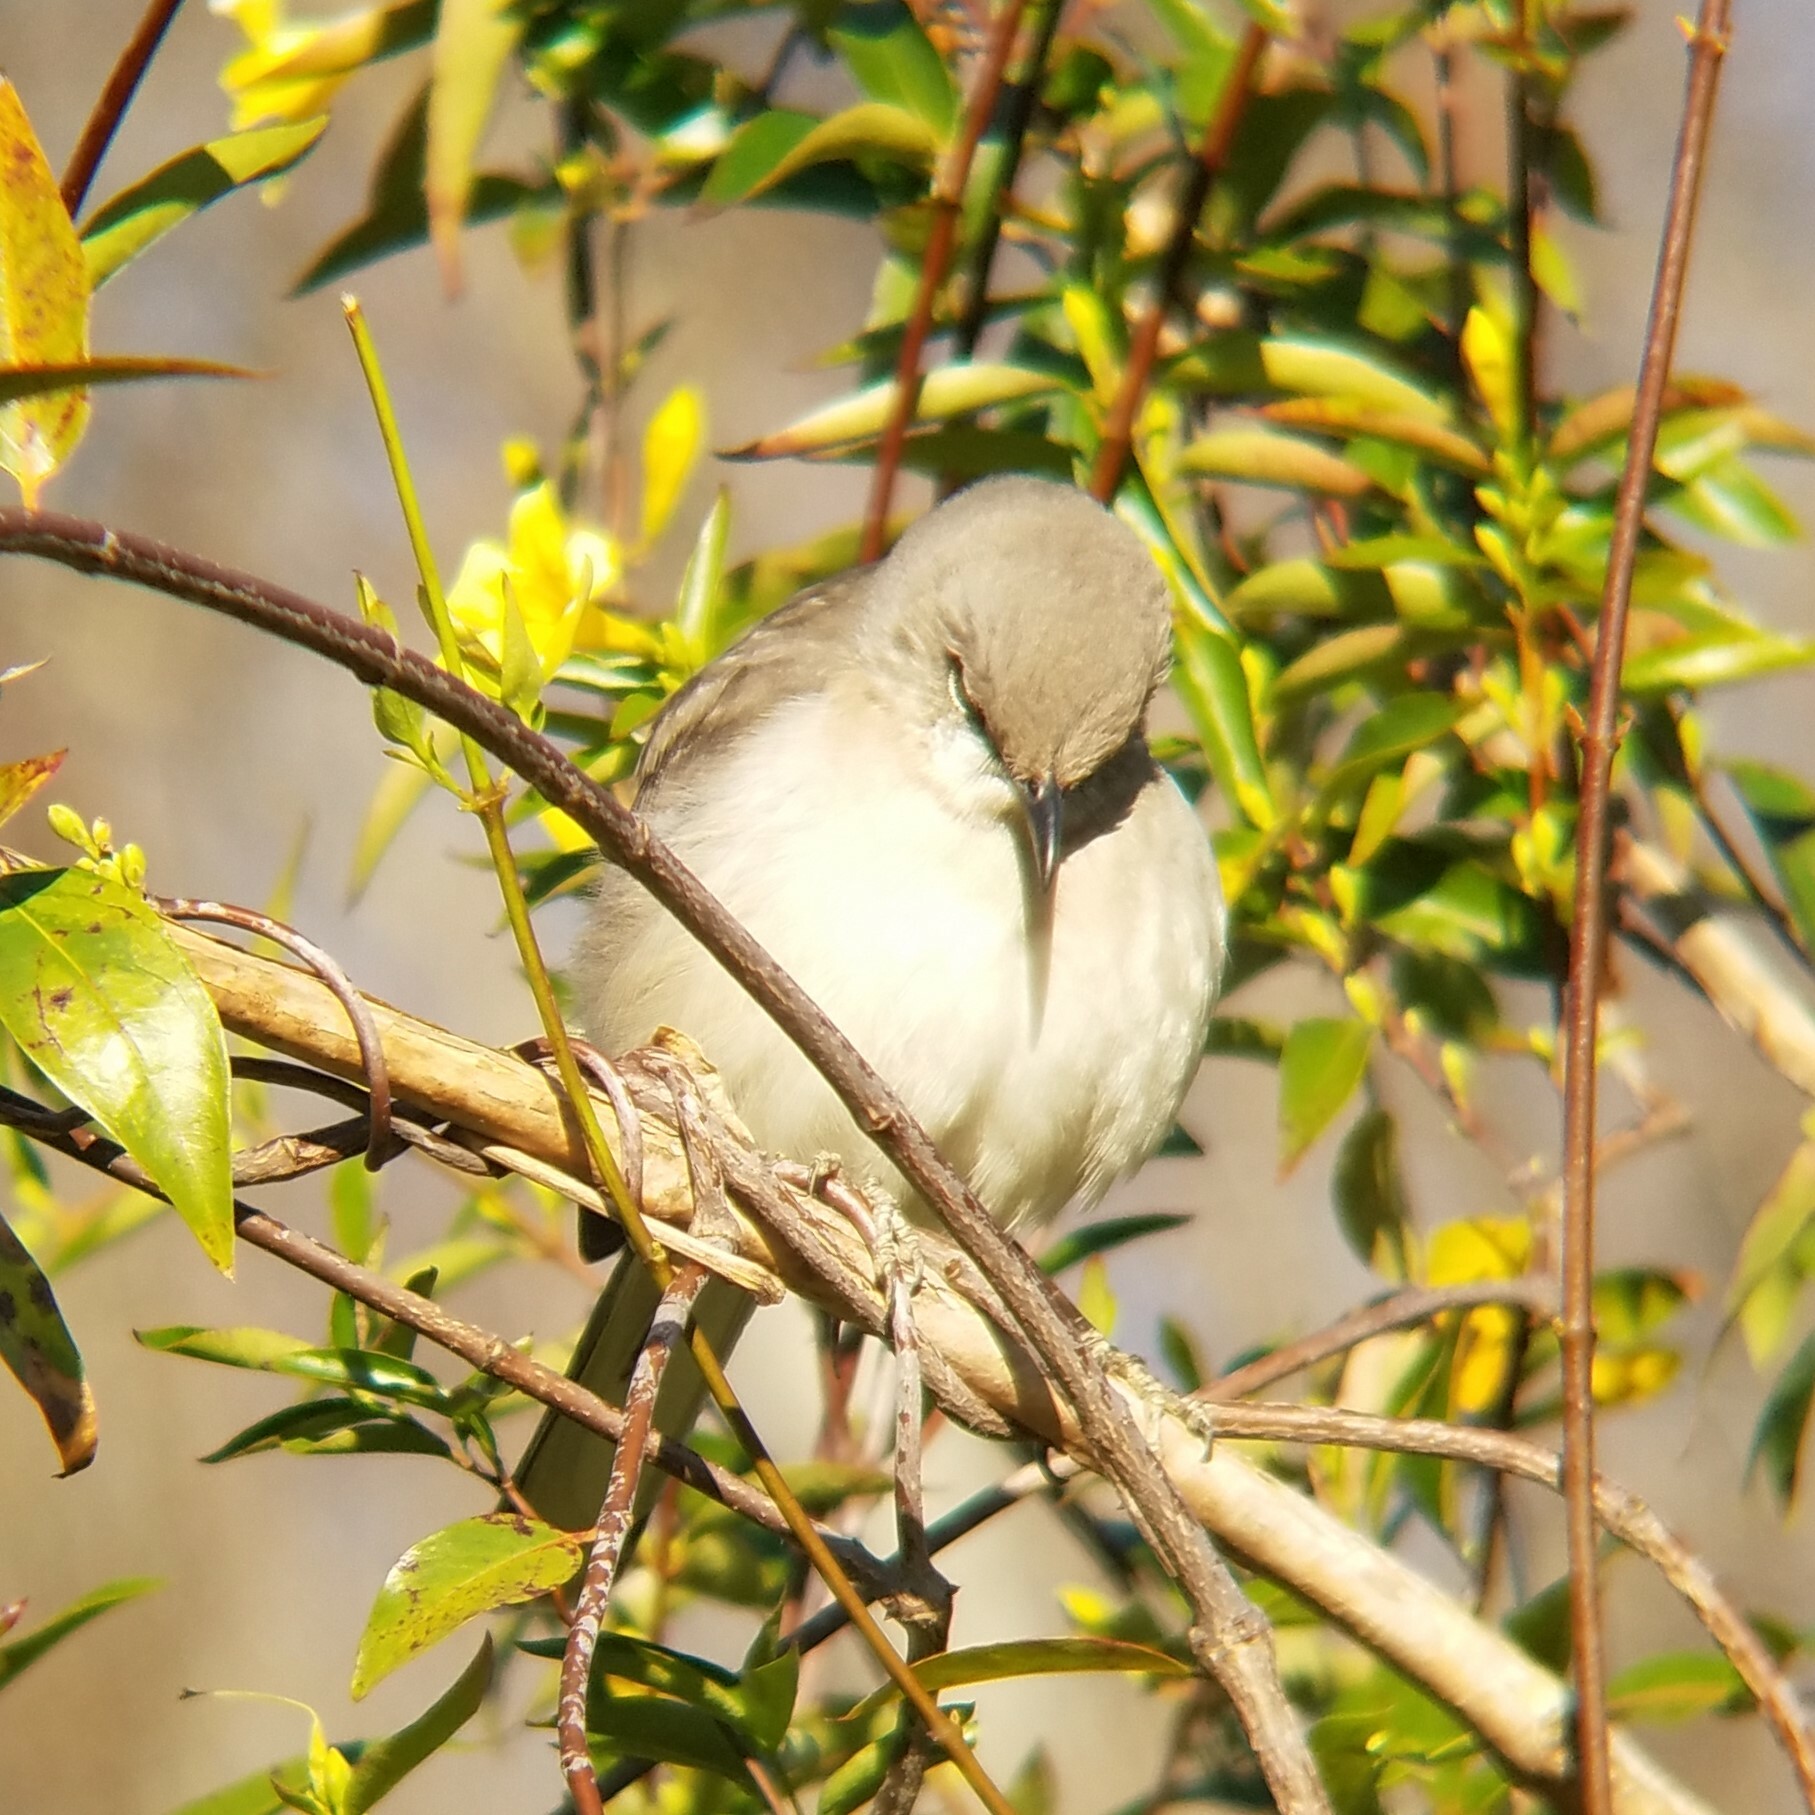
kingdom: Animalia
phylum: Chordata
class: Aves
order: Passeriformes
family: Mimidae
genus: Mimus
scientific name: Mimus polyglottos
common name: Northern mockingbird
